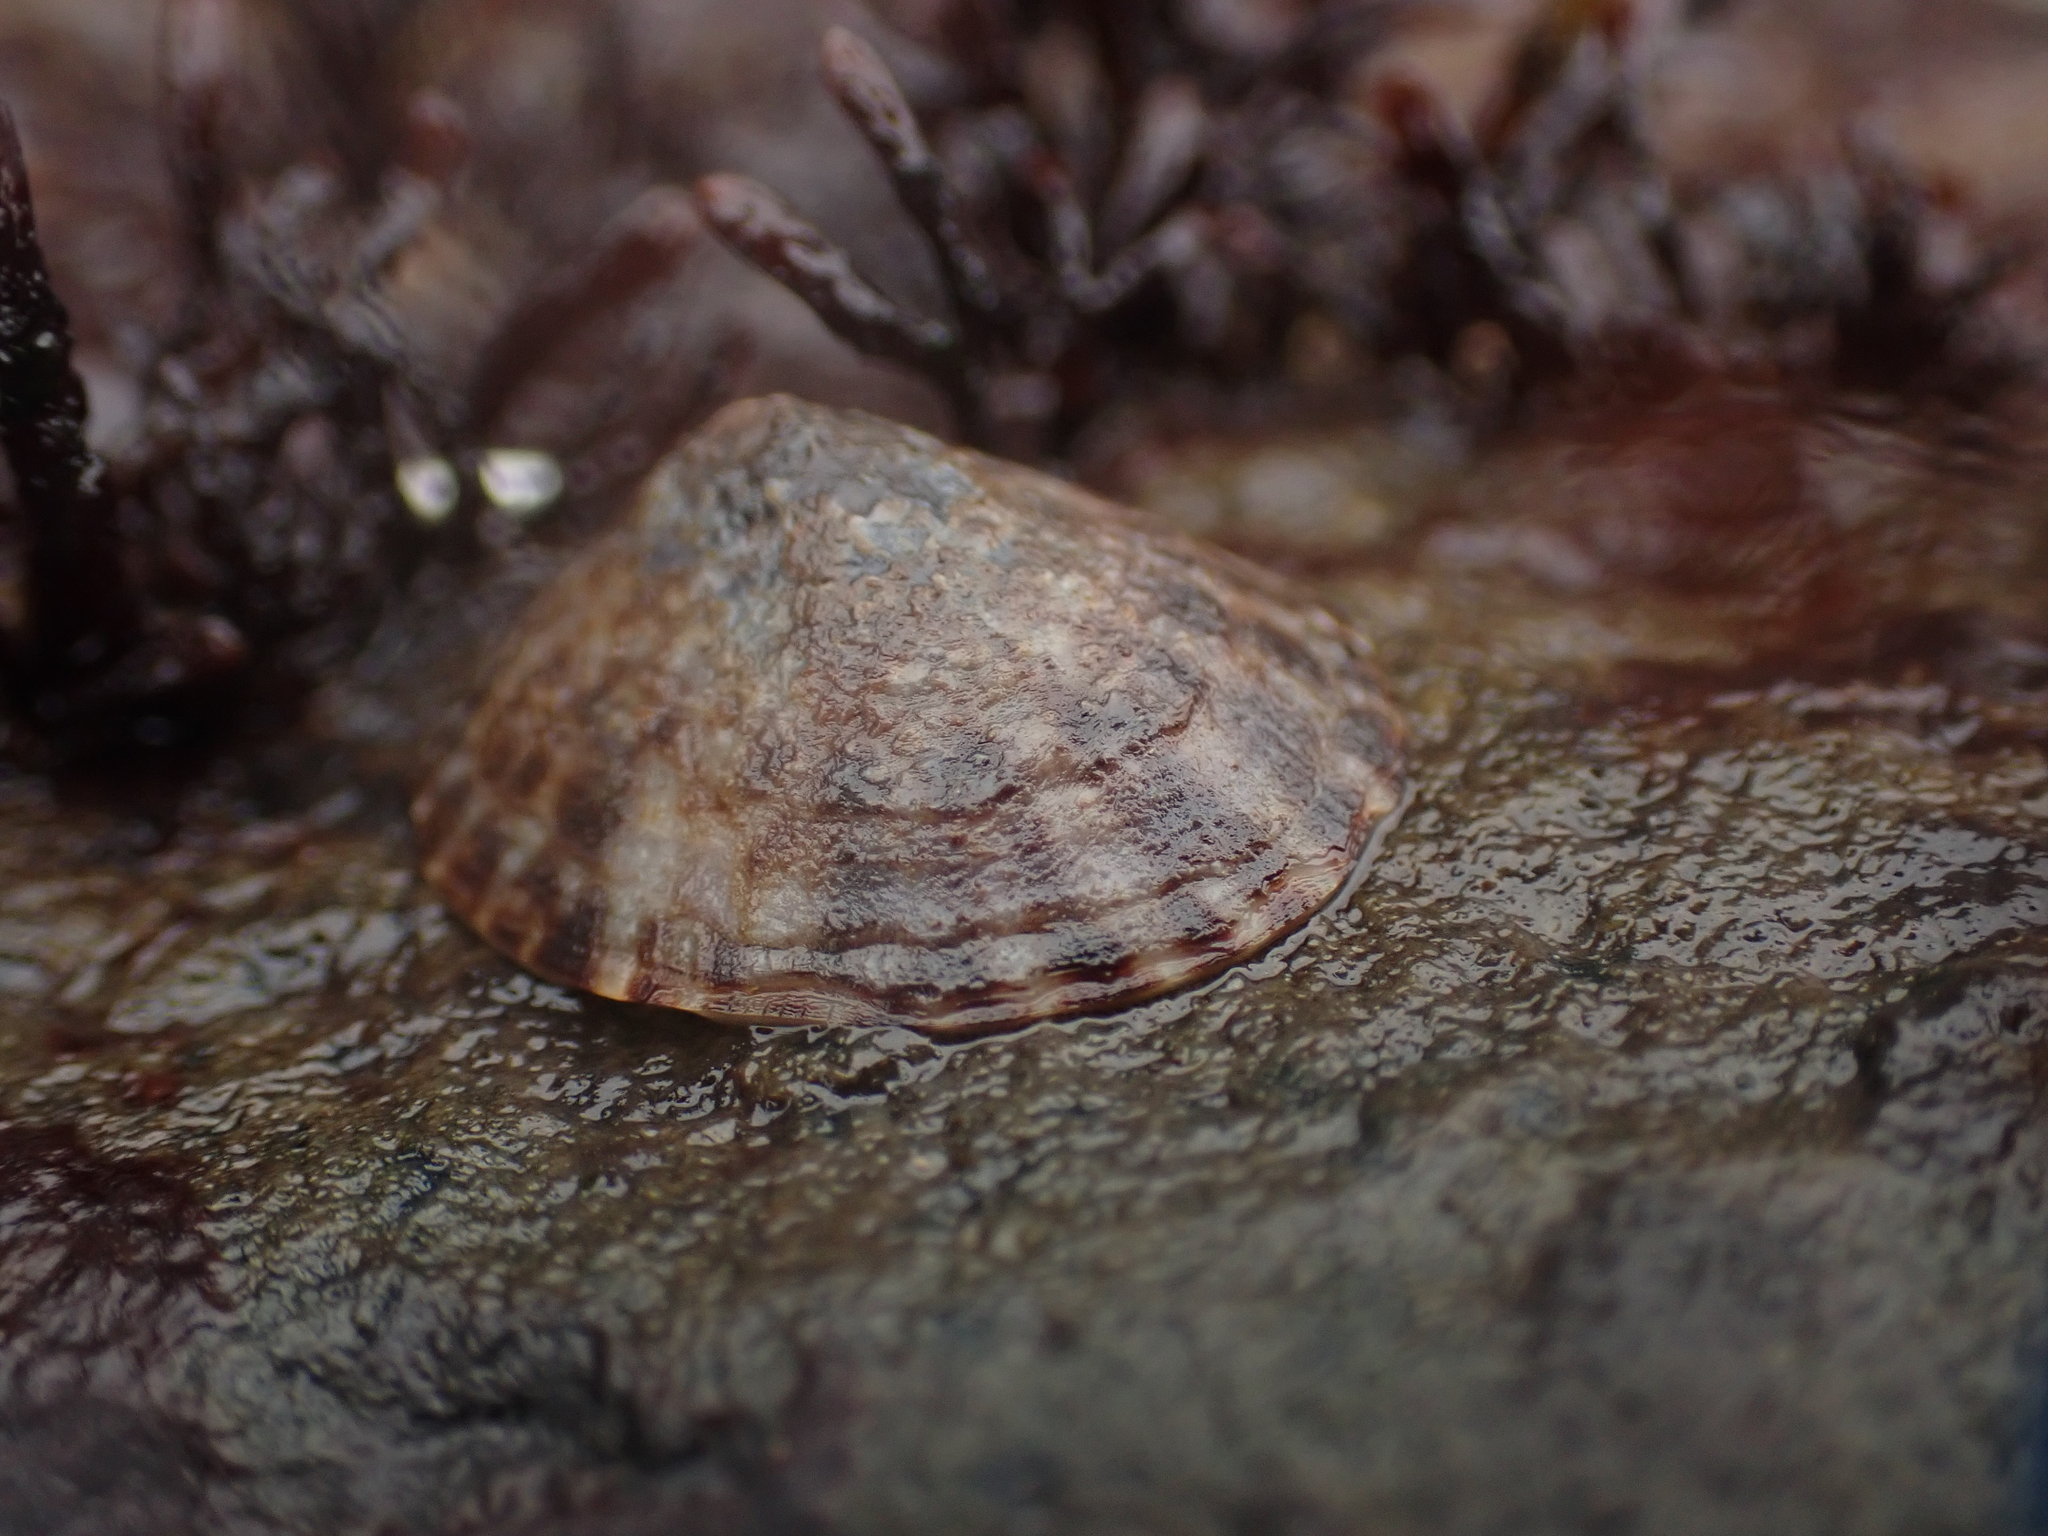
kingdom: Animalia
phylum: Mollusca
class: Gastropoda
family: Lottiidae
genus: Testudinalia
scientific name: Testudinalia testudinalis
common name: Common tortoiseshell limpet
